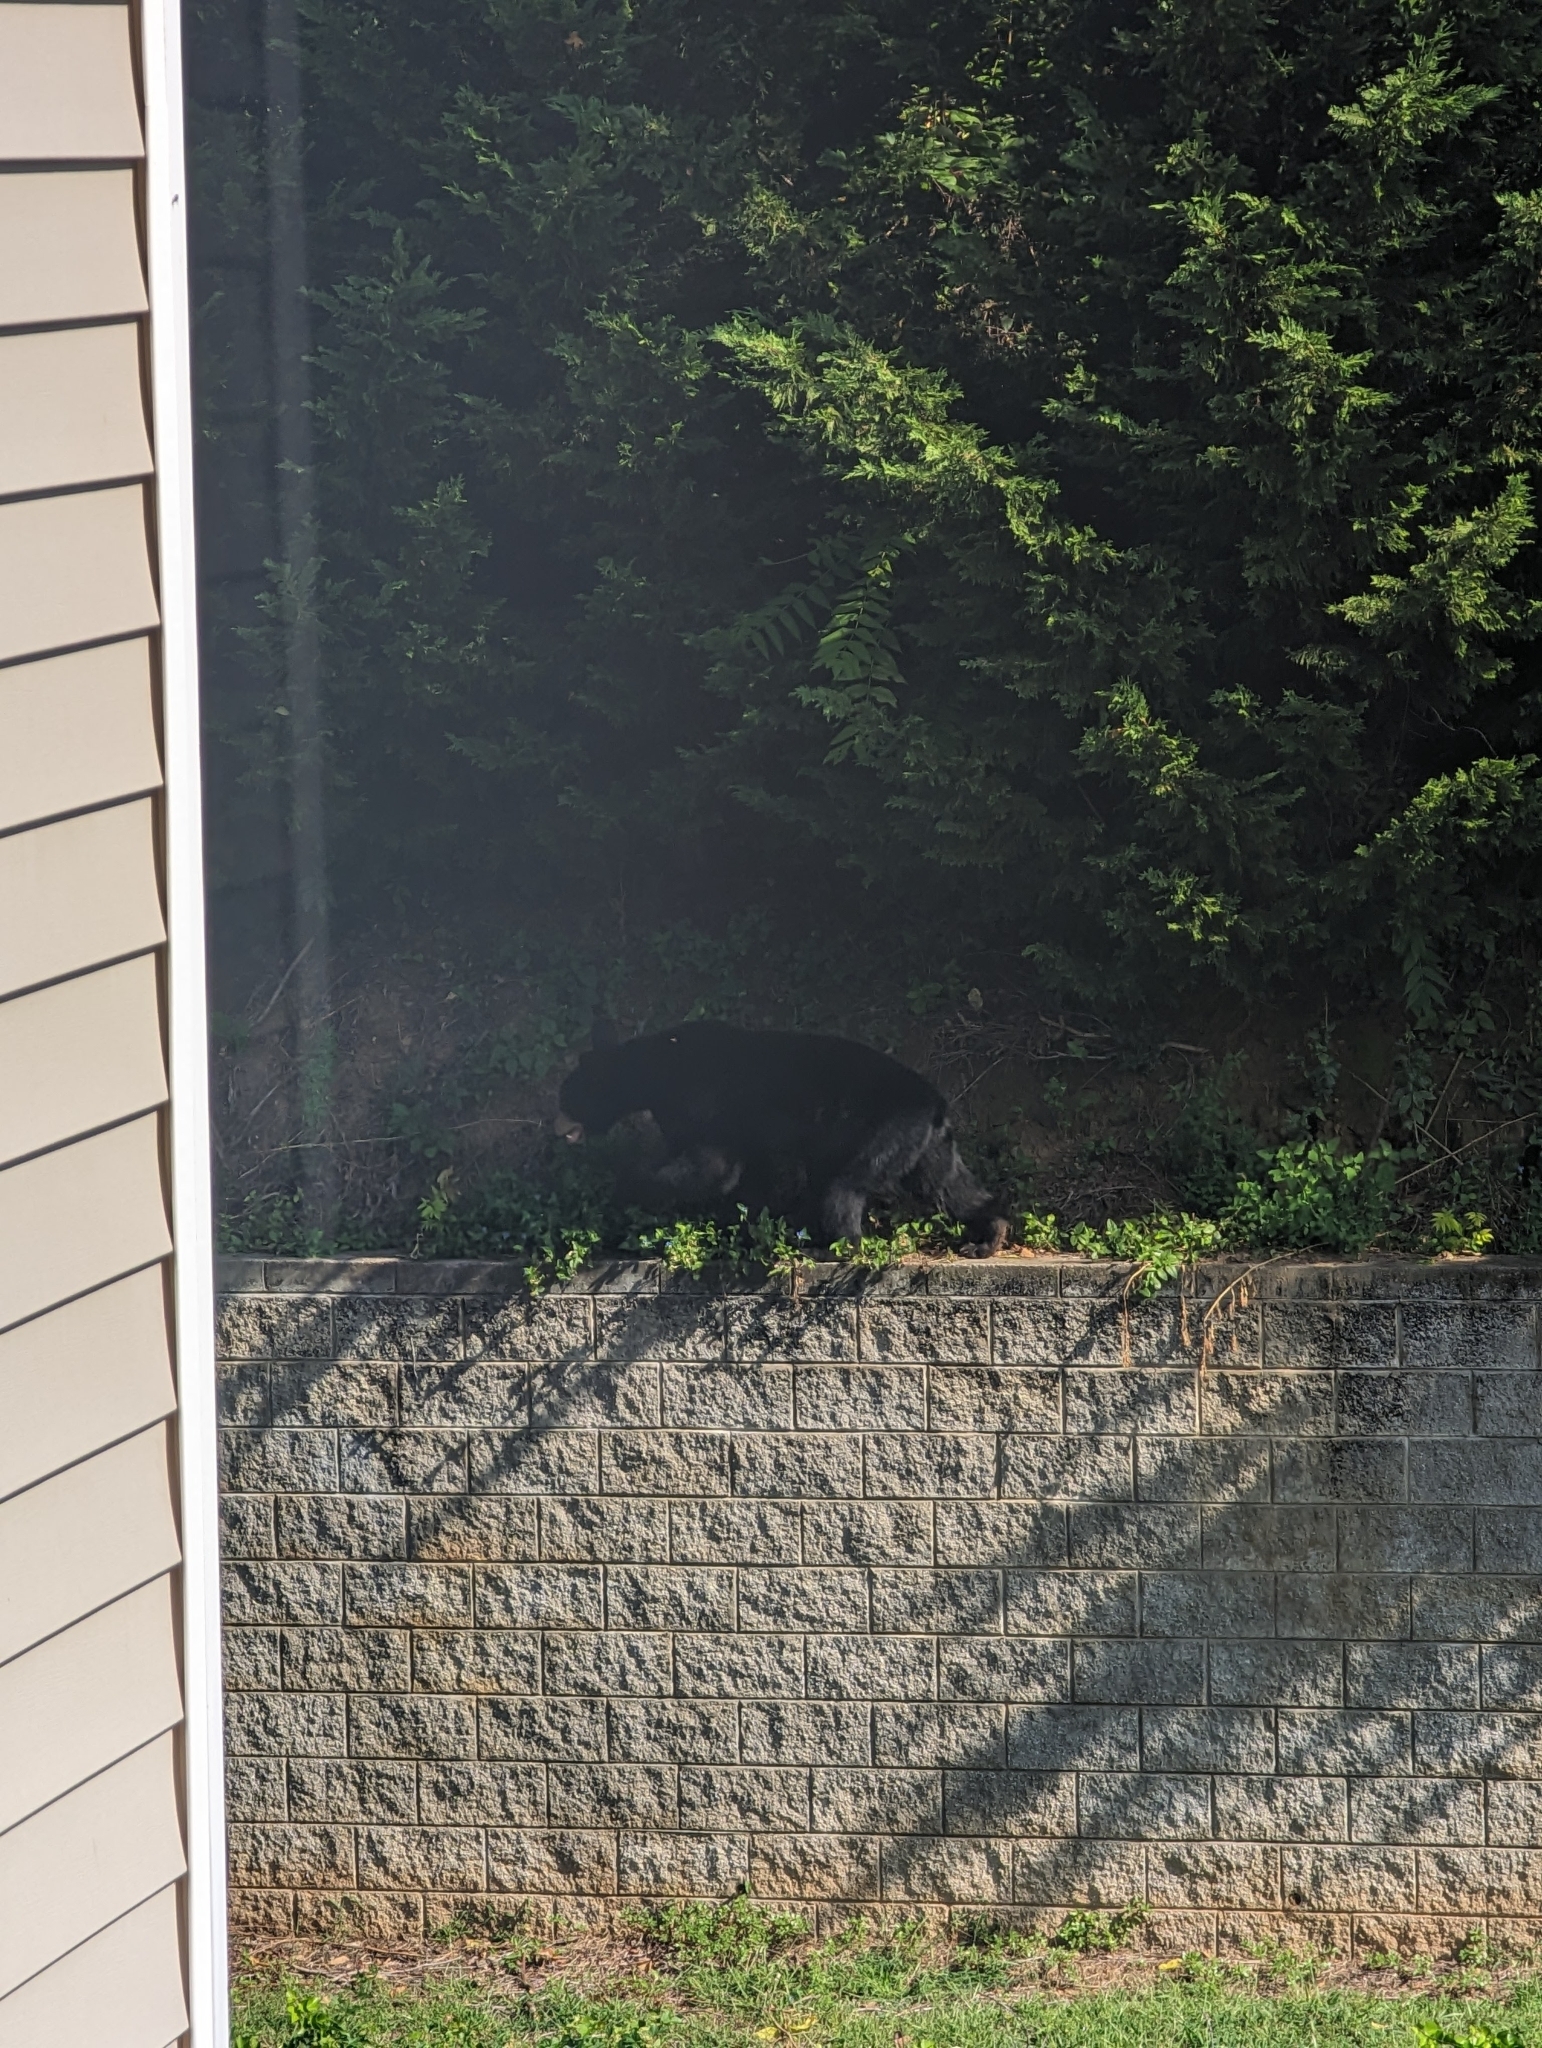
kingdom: Animalia
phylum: Chordata
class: Mammalia
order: Carnivora
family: Ursidae
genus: Ursus
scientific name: Ursus americanus
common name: American black bear
